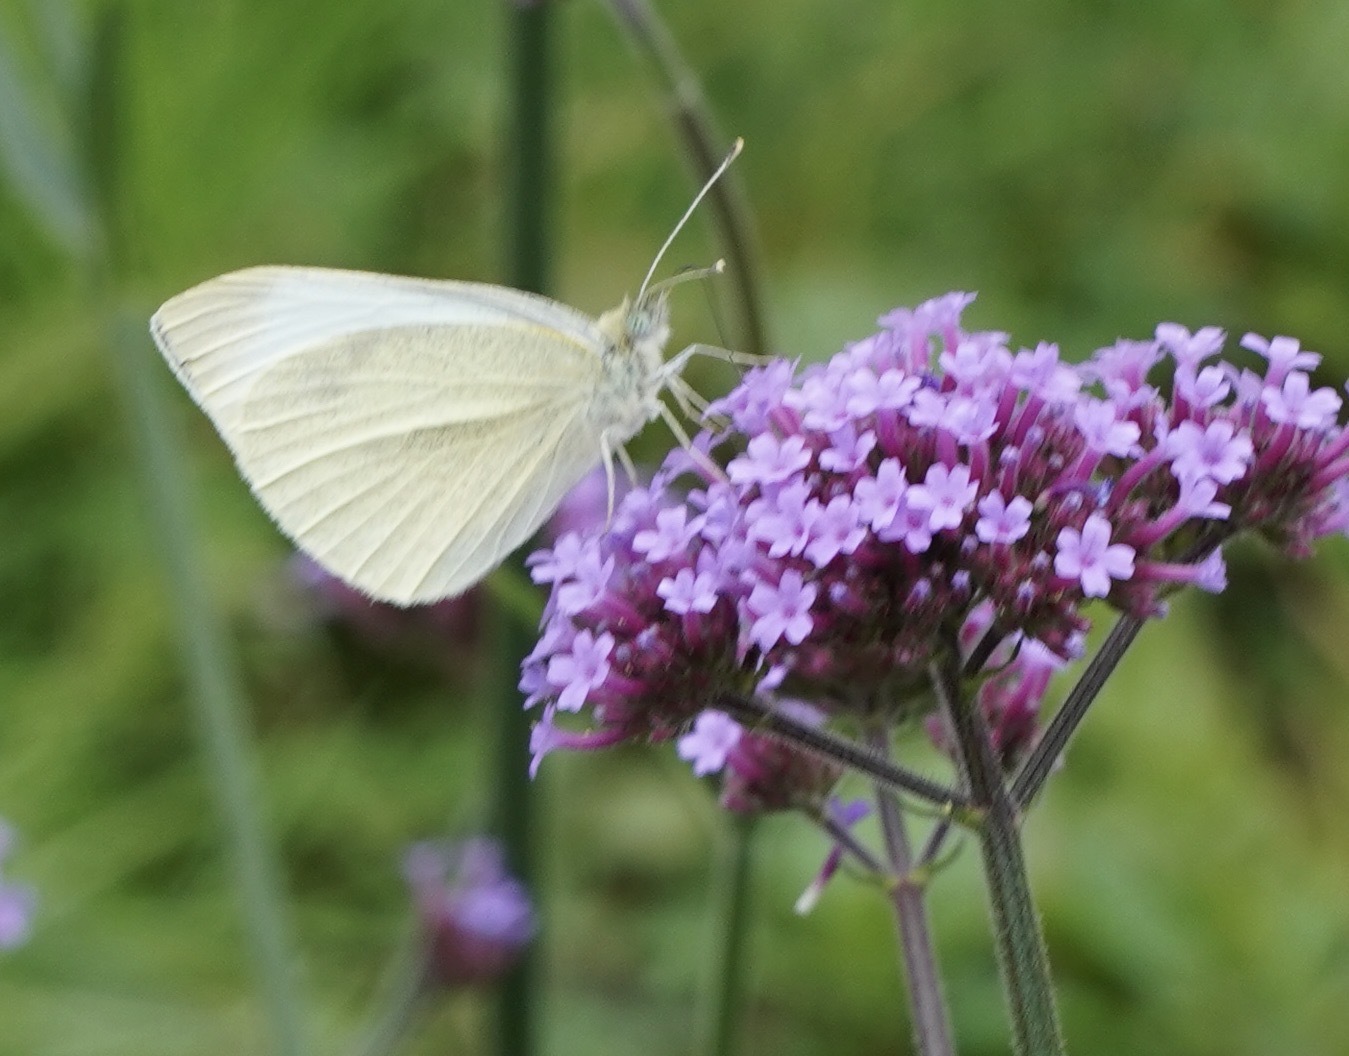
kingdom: Animalia
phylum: Arthropoda
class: Insecta
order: Lepidoptera
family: Pieridae
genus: Pieris
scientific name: Pieris rapae
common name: Small white
